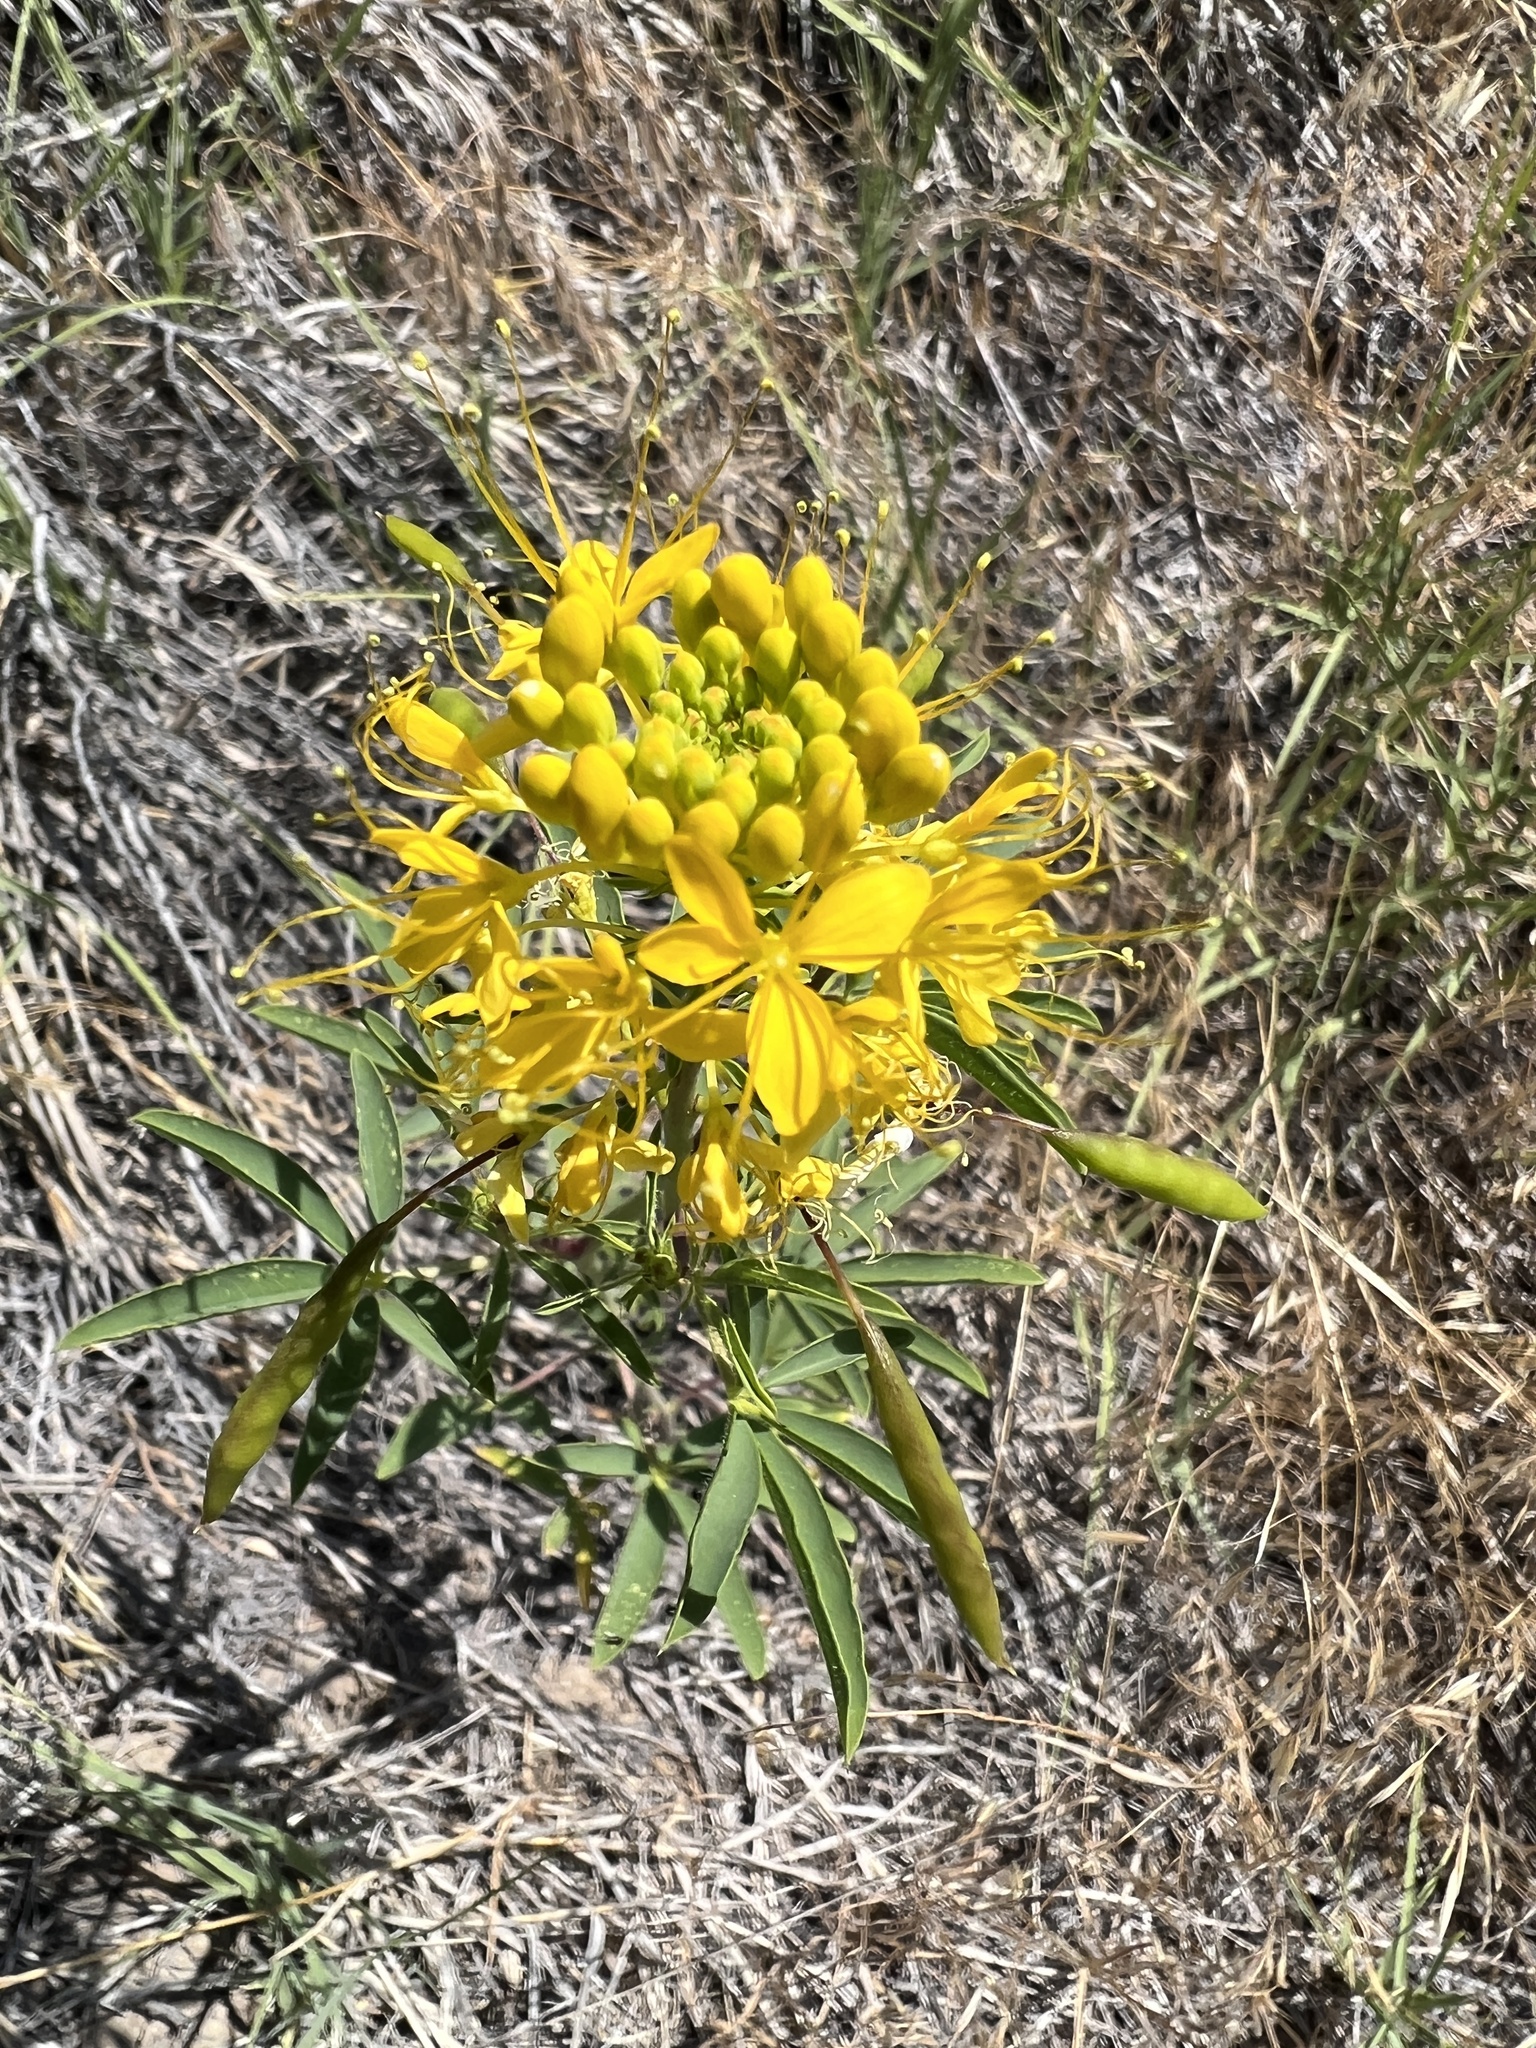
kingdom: Plantae
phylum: Tracheophyta
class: Magnoliopsida
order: Brassicales
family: Cleomaceae
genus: Cleomella
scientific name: Cleomella lutea
